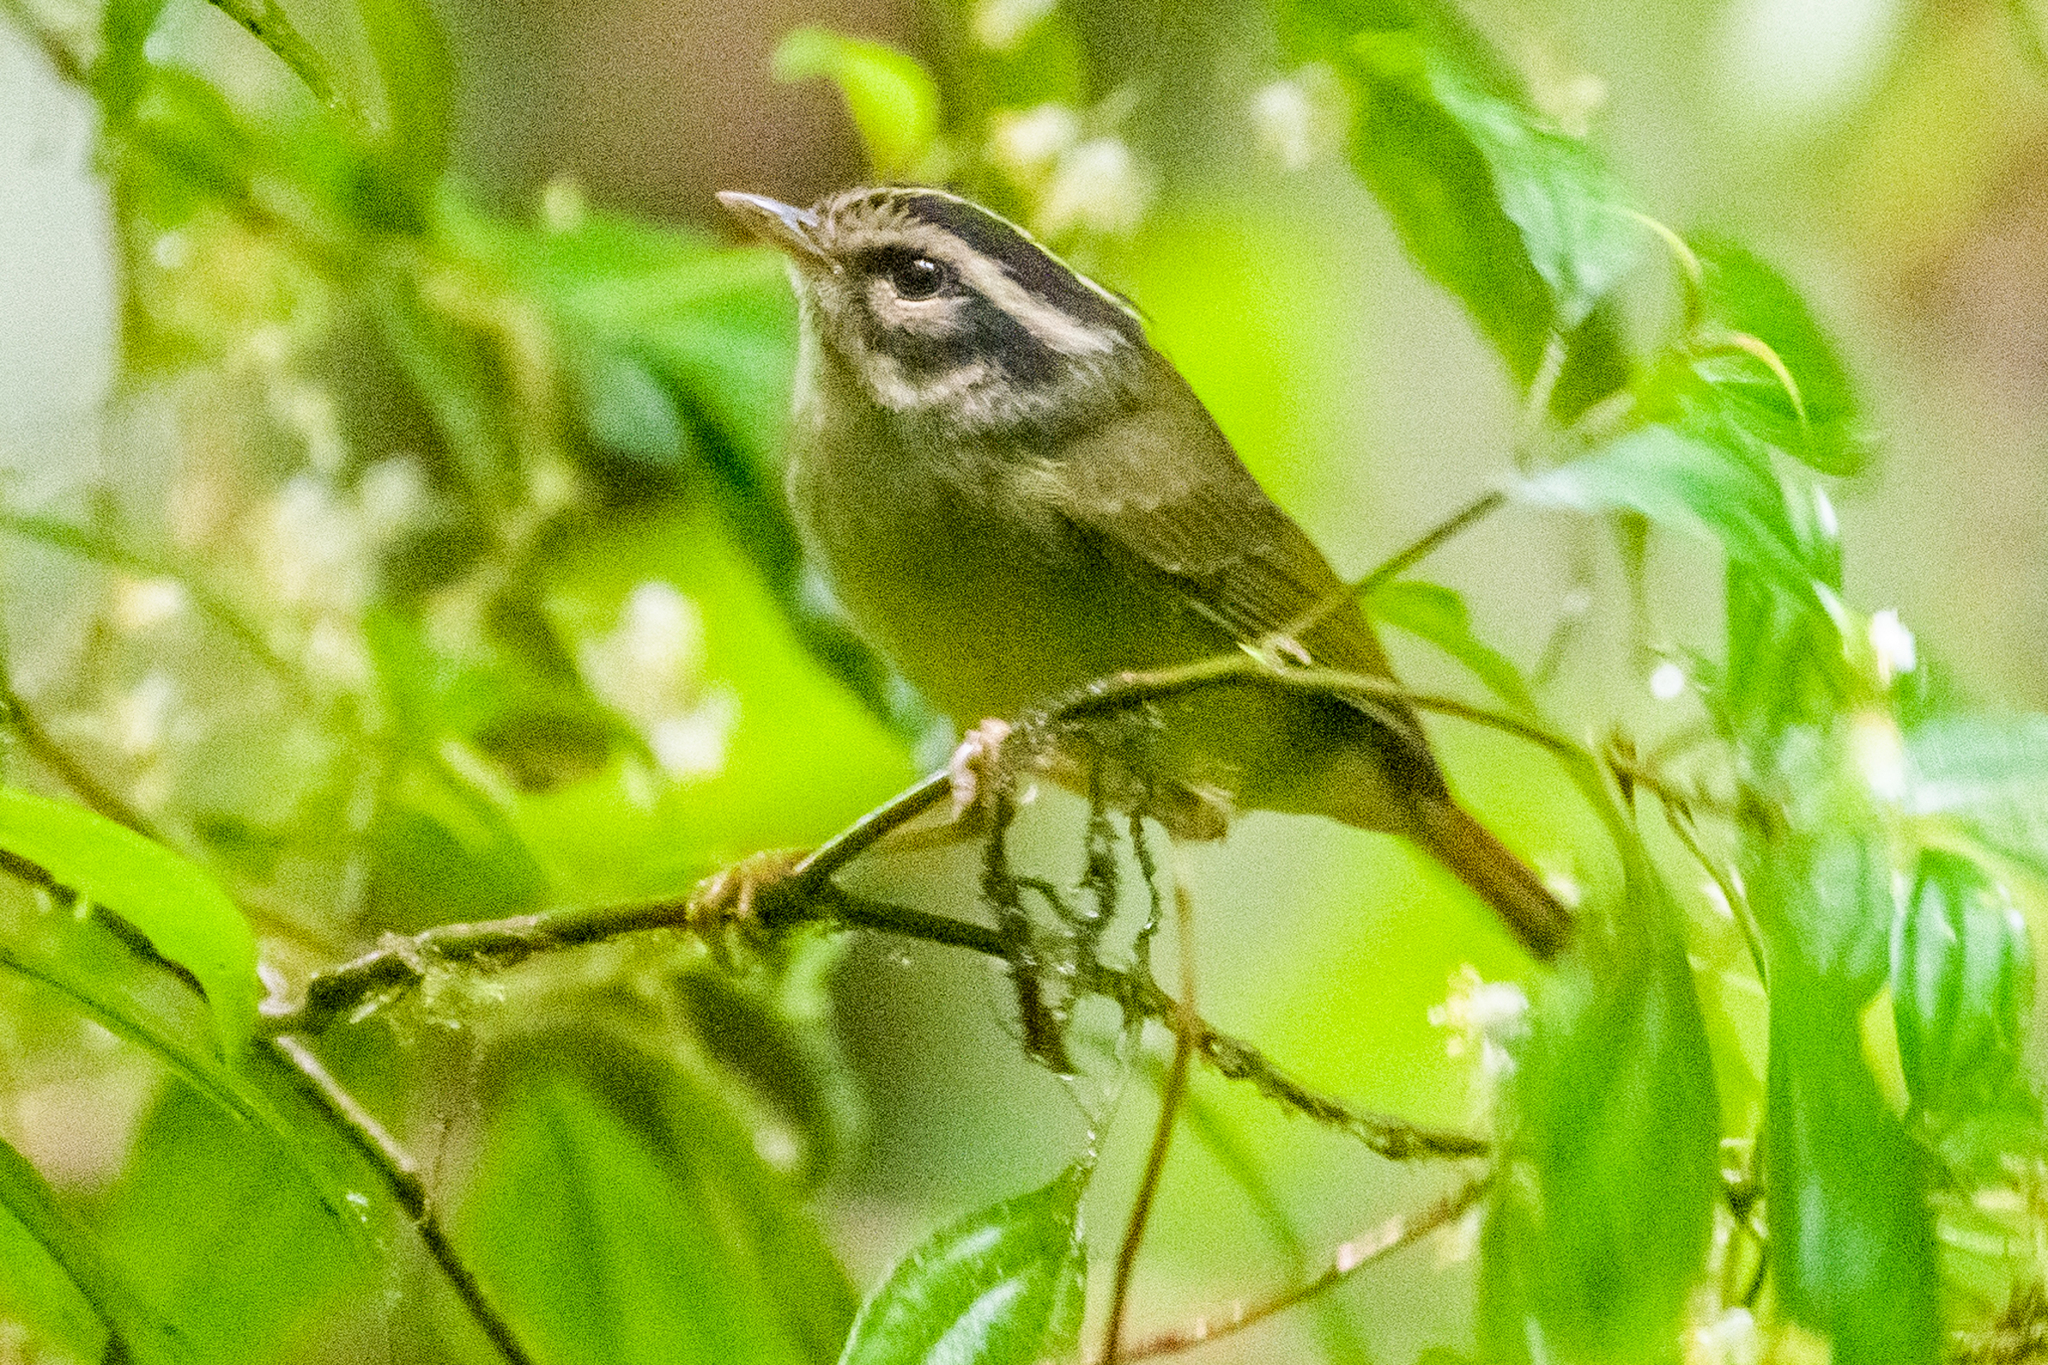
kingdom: Animalia
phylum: Chordata
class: Aves
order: Passeriformes
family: Parulidae
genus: Basileuterus
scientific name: Basileuterus melanotis
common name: Black-eared warbler
